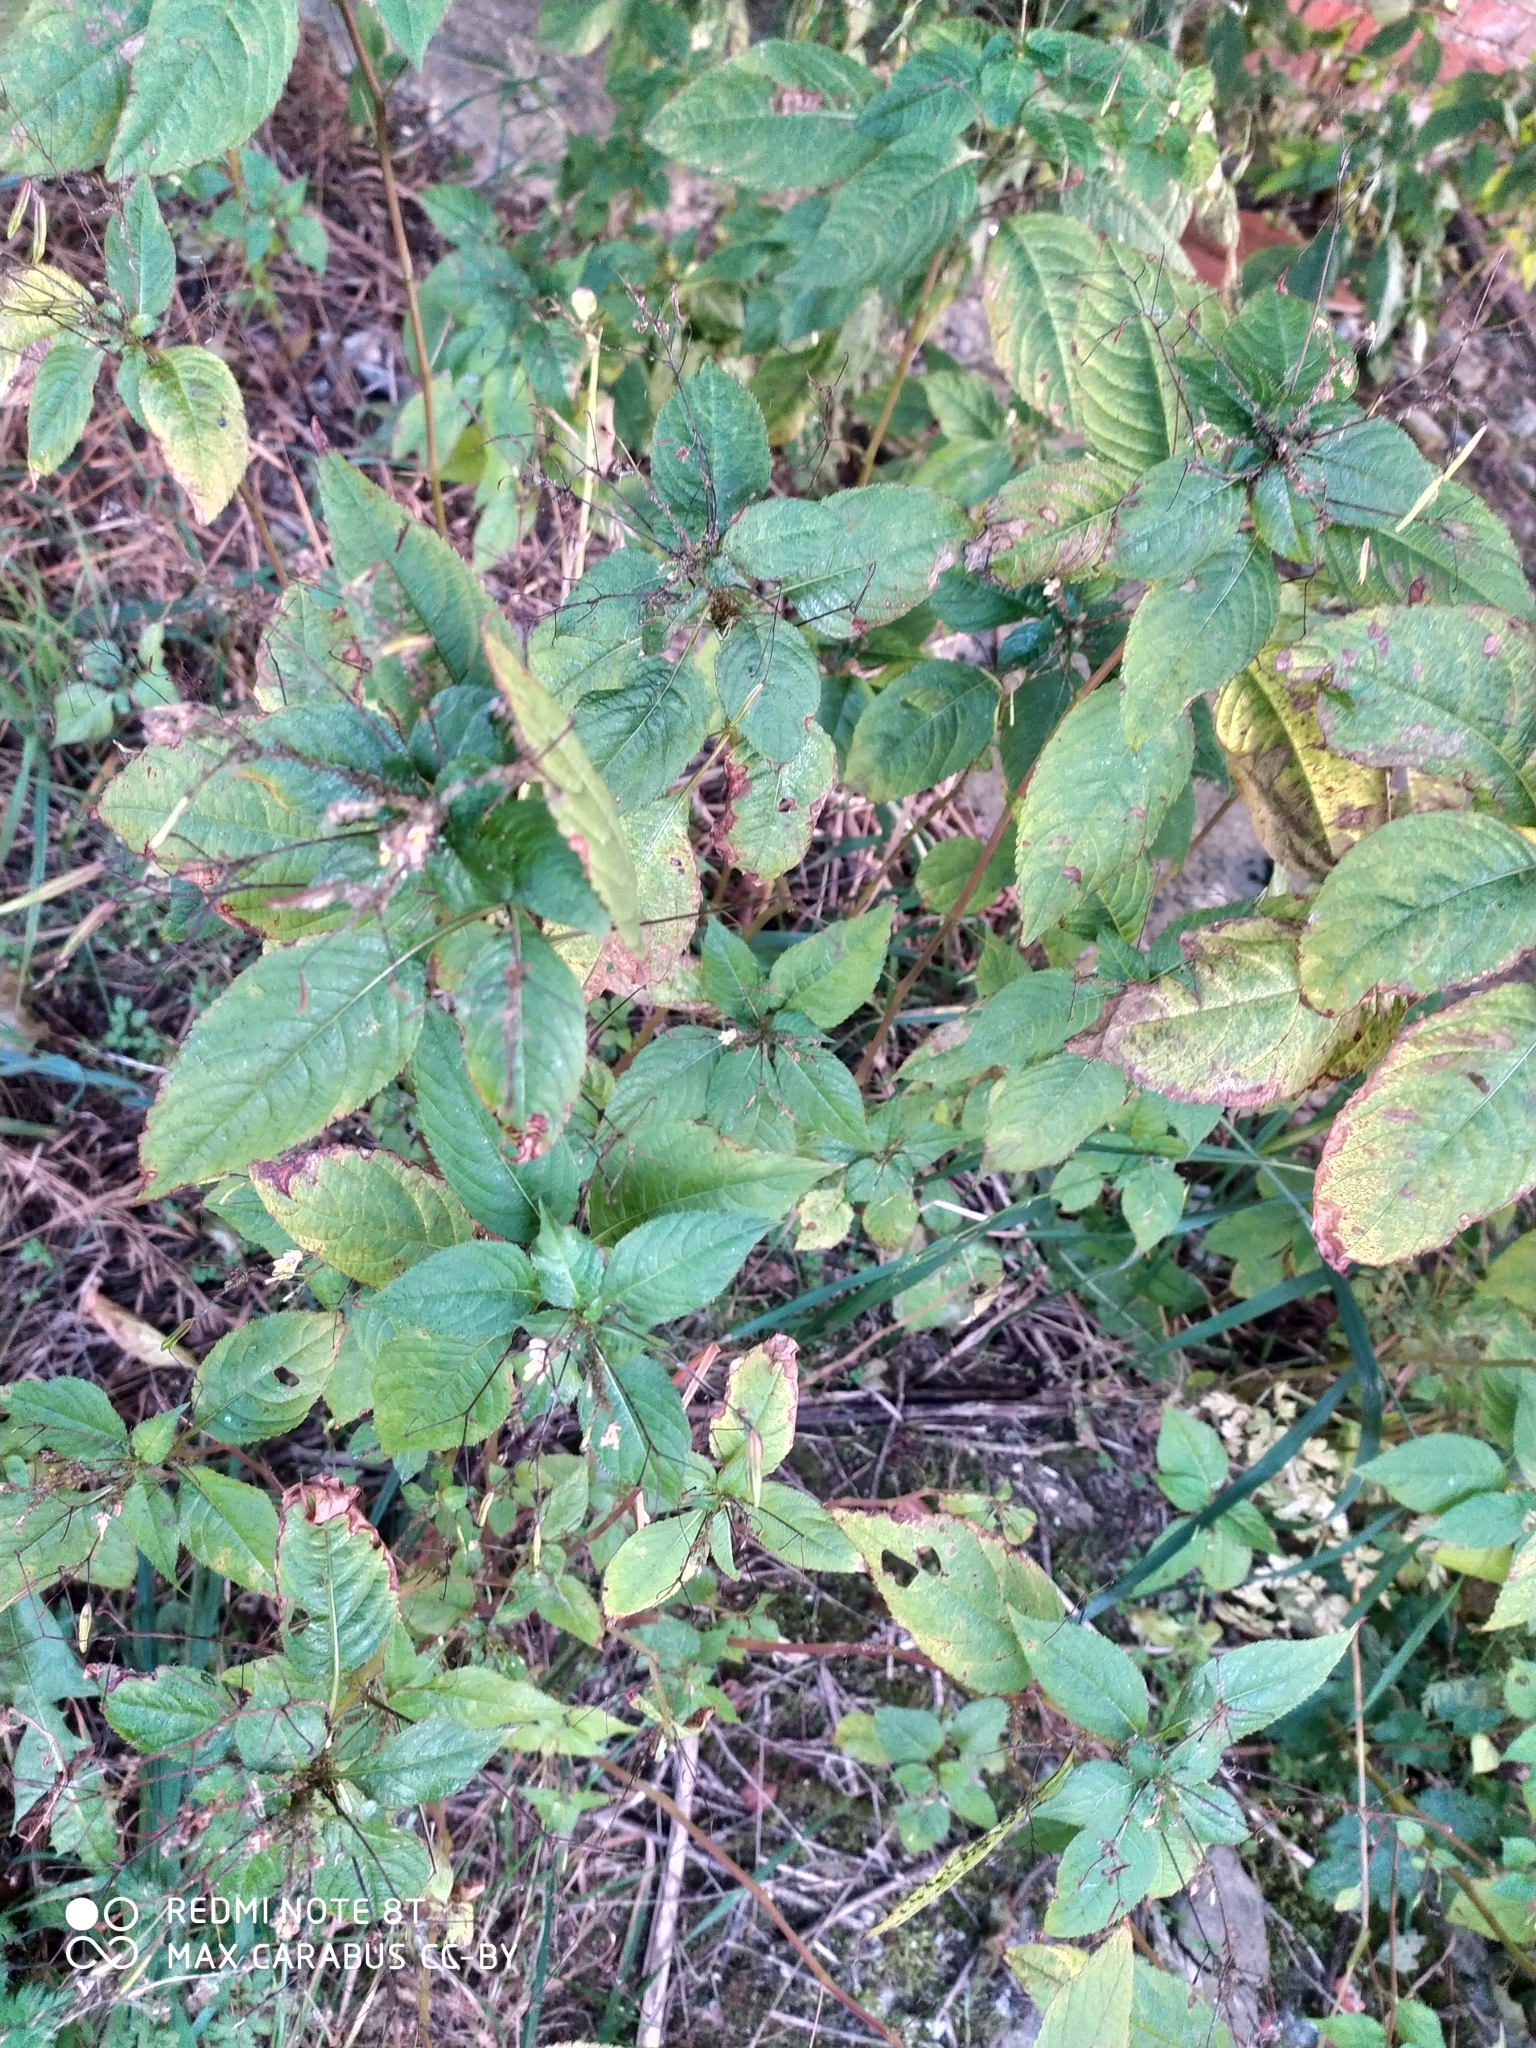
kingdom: Plantae
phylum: Tracheophyta
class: Magnoliopsida
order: Ericales
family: Balsaminaceae
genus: Impatiens
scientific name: Impatiens parviflora
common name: Small balsam
